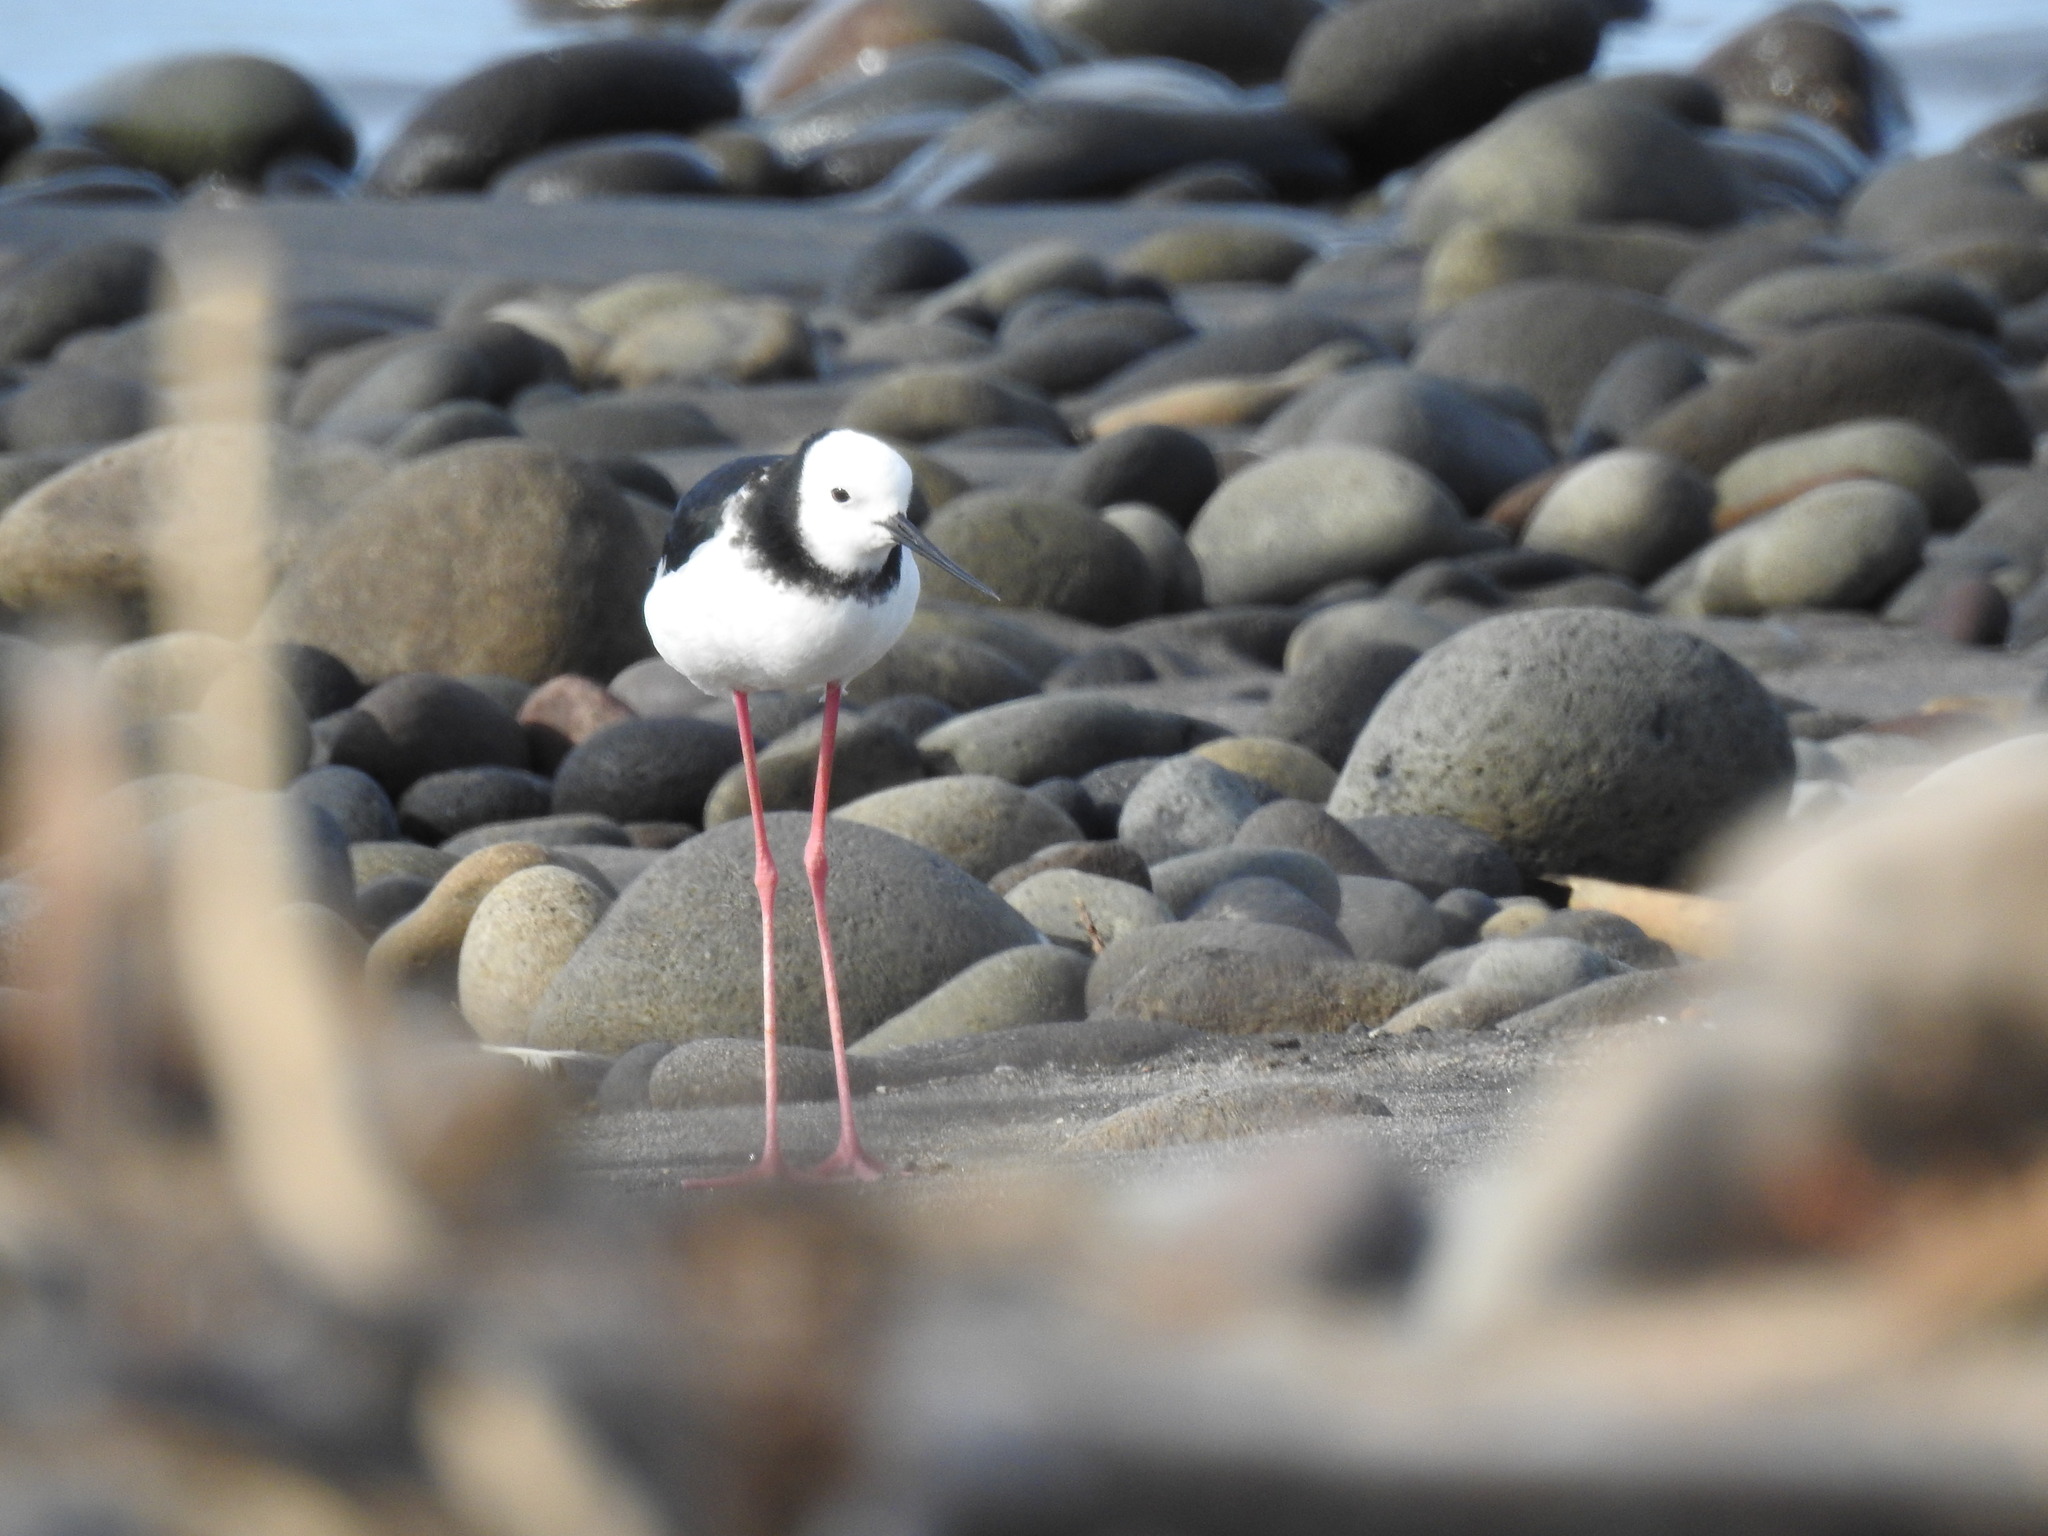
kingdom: Animalia
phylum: Chordata
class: Aves
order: Charadriiformes
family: Recurvirostridae
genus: Himantopus
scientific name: Himantopus leucocephalus
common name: White-headed stilt
